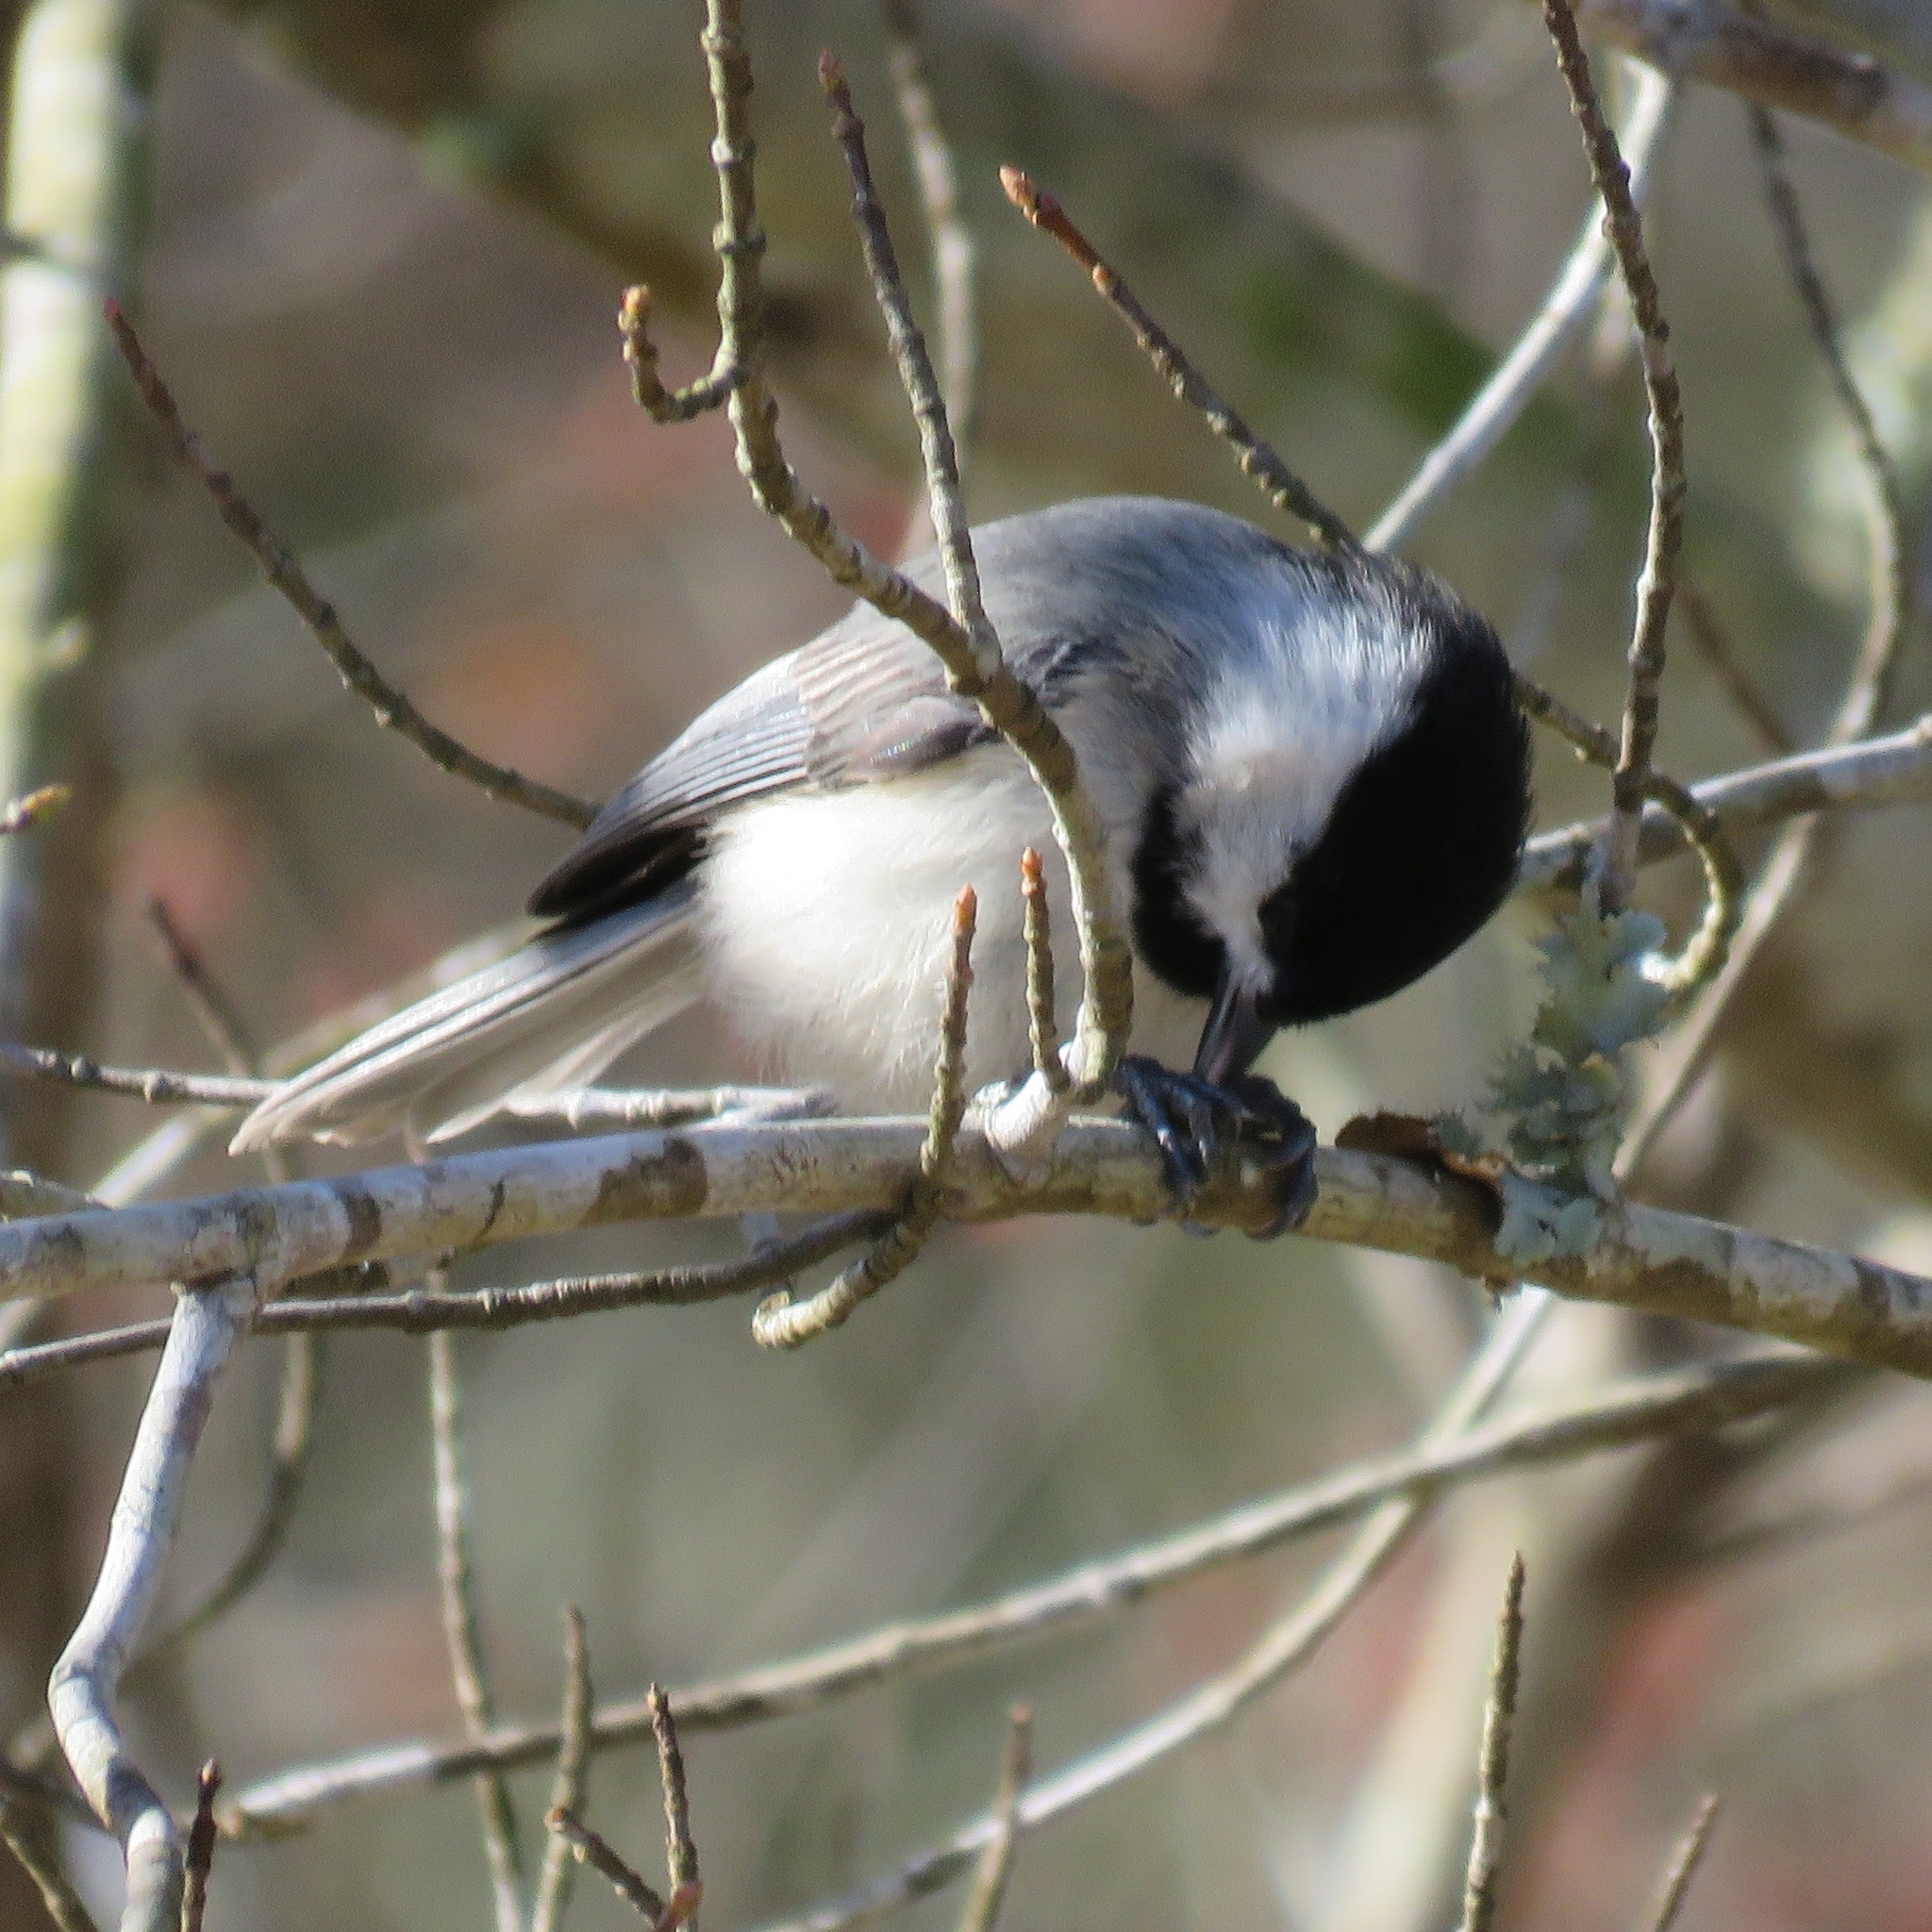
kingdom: Animalia
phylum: Chordata
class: Aves
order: Passeriformes
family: Paridae
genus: Poecile
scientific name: Poecile carolinensis
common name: Carolina chickadee
